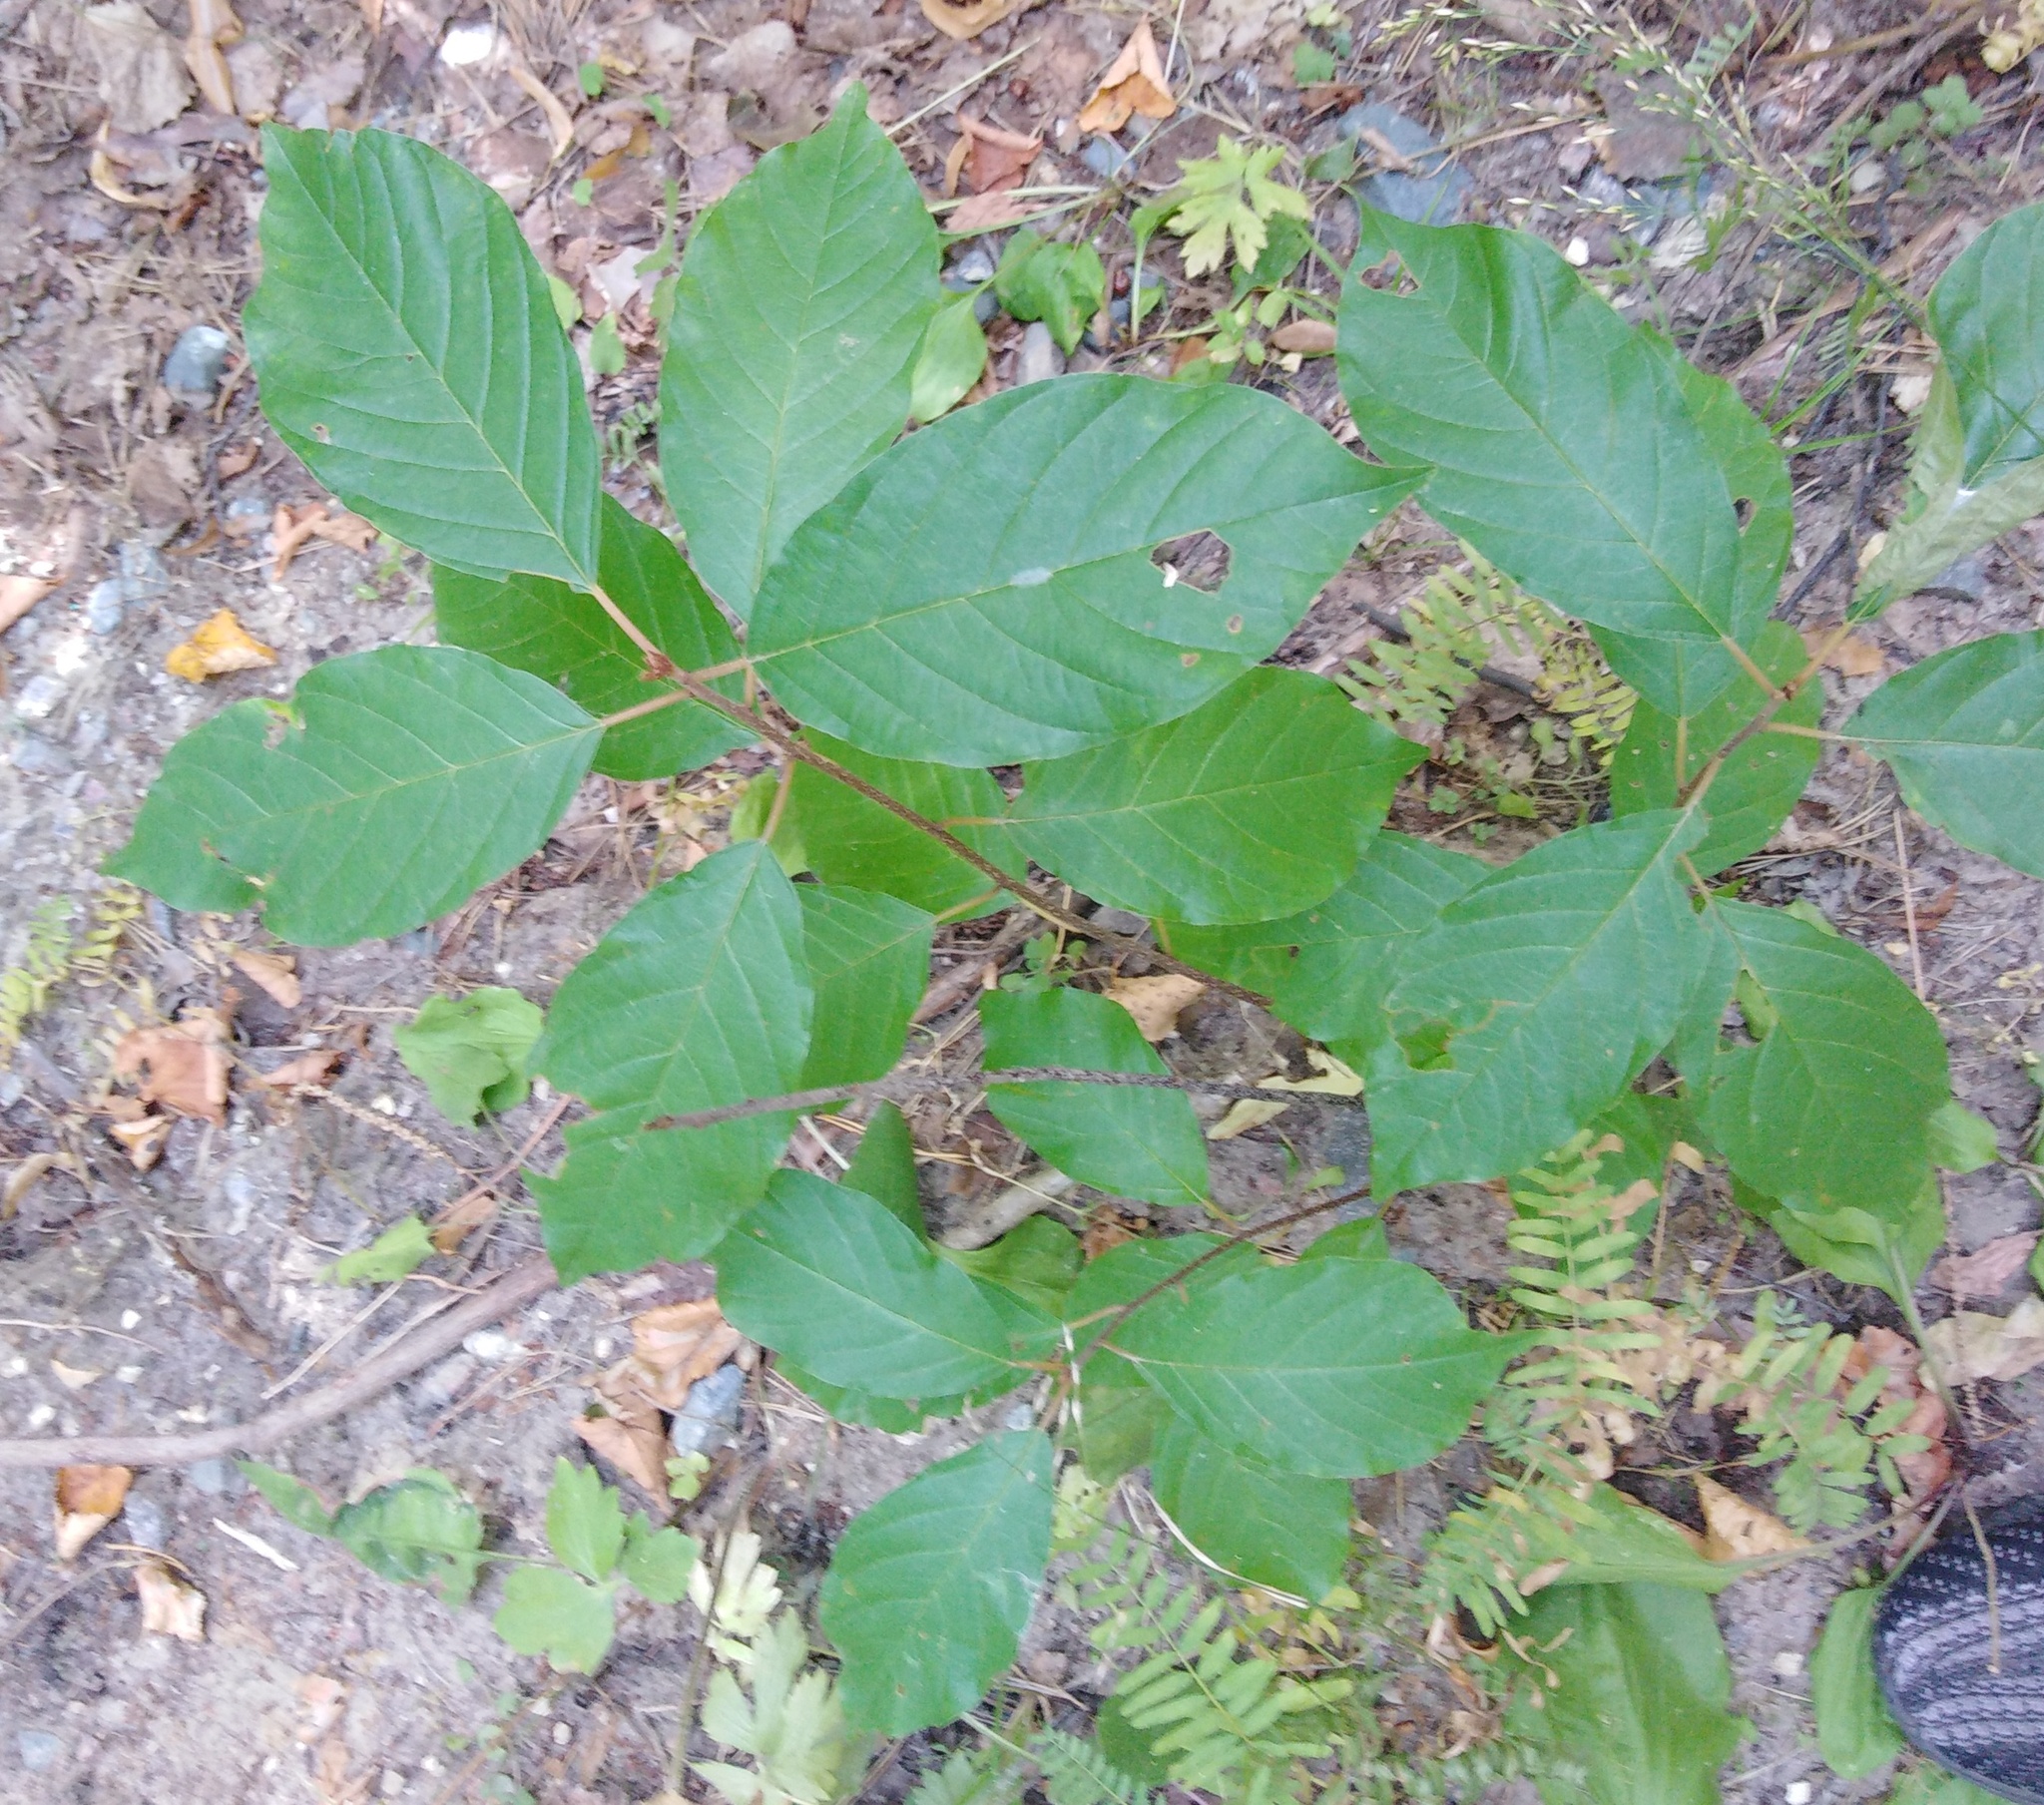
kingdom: Plantae
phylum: Tracheophyta
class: Magnoliopsida
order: Rosales
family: Rhamnaceae
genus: Frangula
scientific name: Frangula alnus
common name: Alder buckthorn
